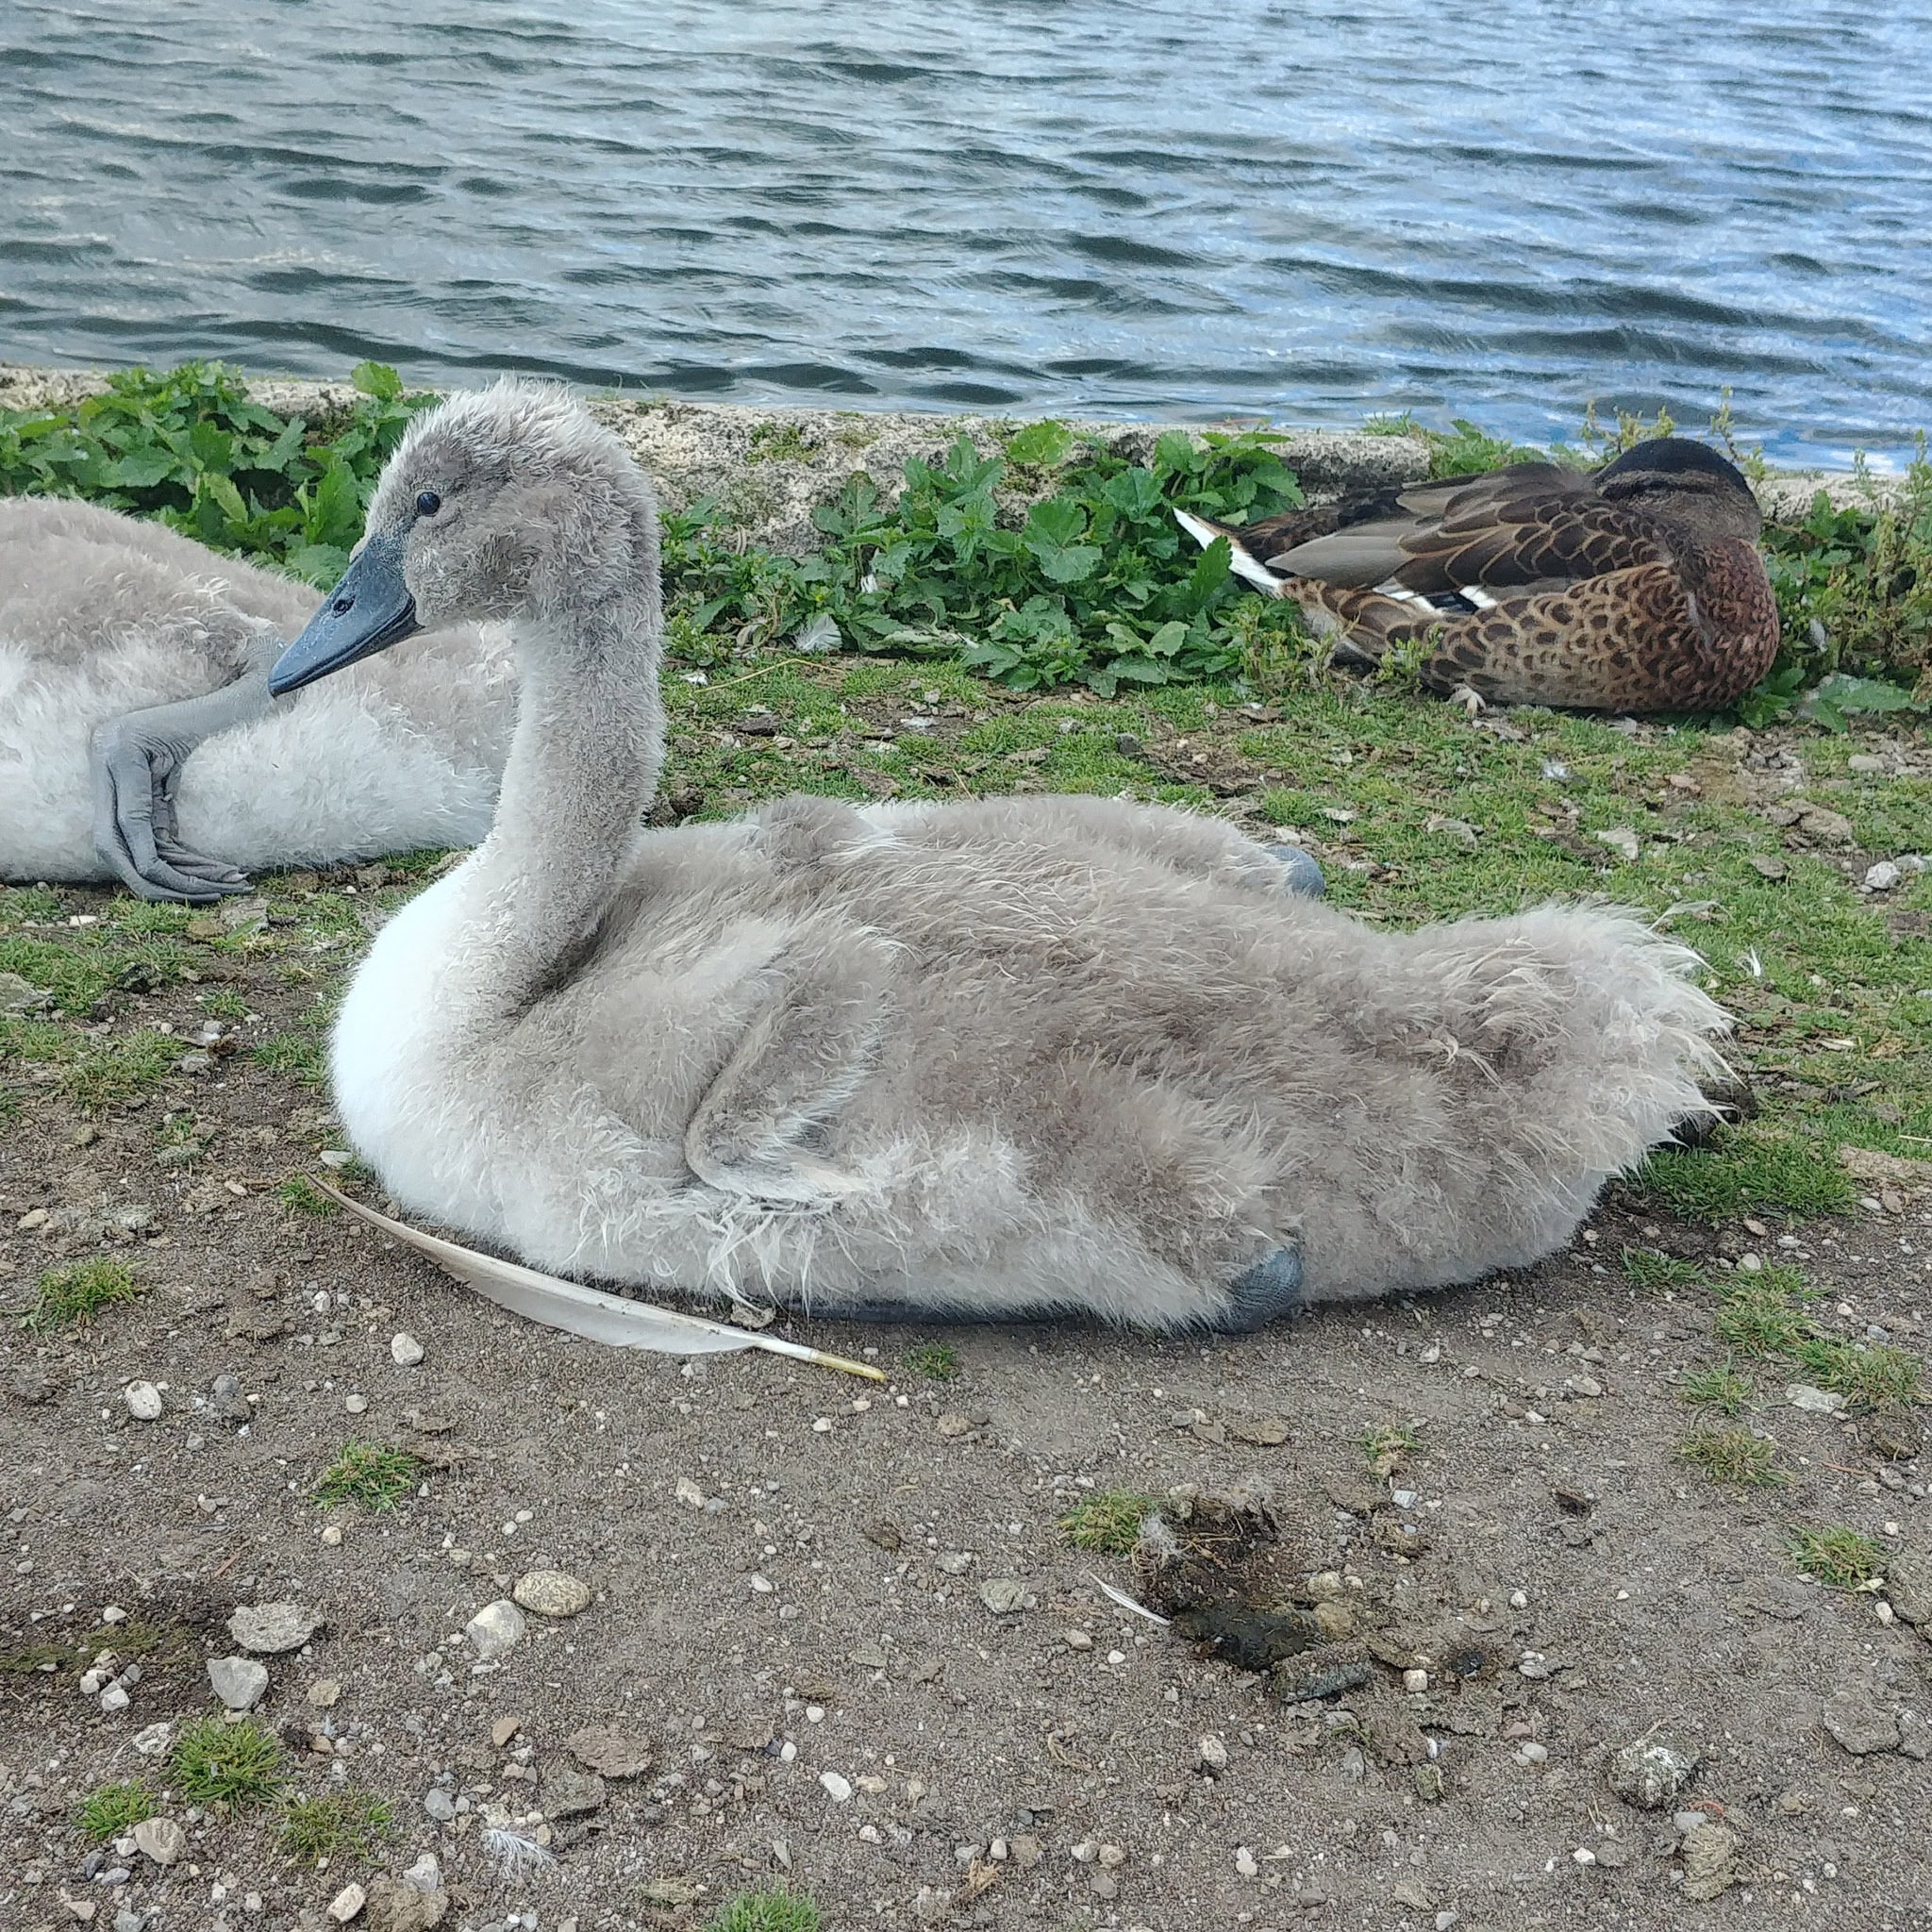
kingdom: Animalia
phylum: Chordata
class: Aves
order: Anseriformes
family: Anatidae
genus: Cygnus
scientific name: Cygnus olor
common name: Mute swan
